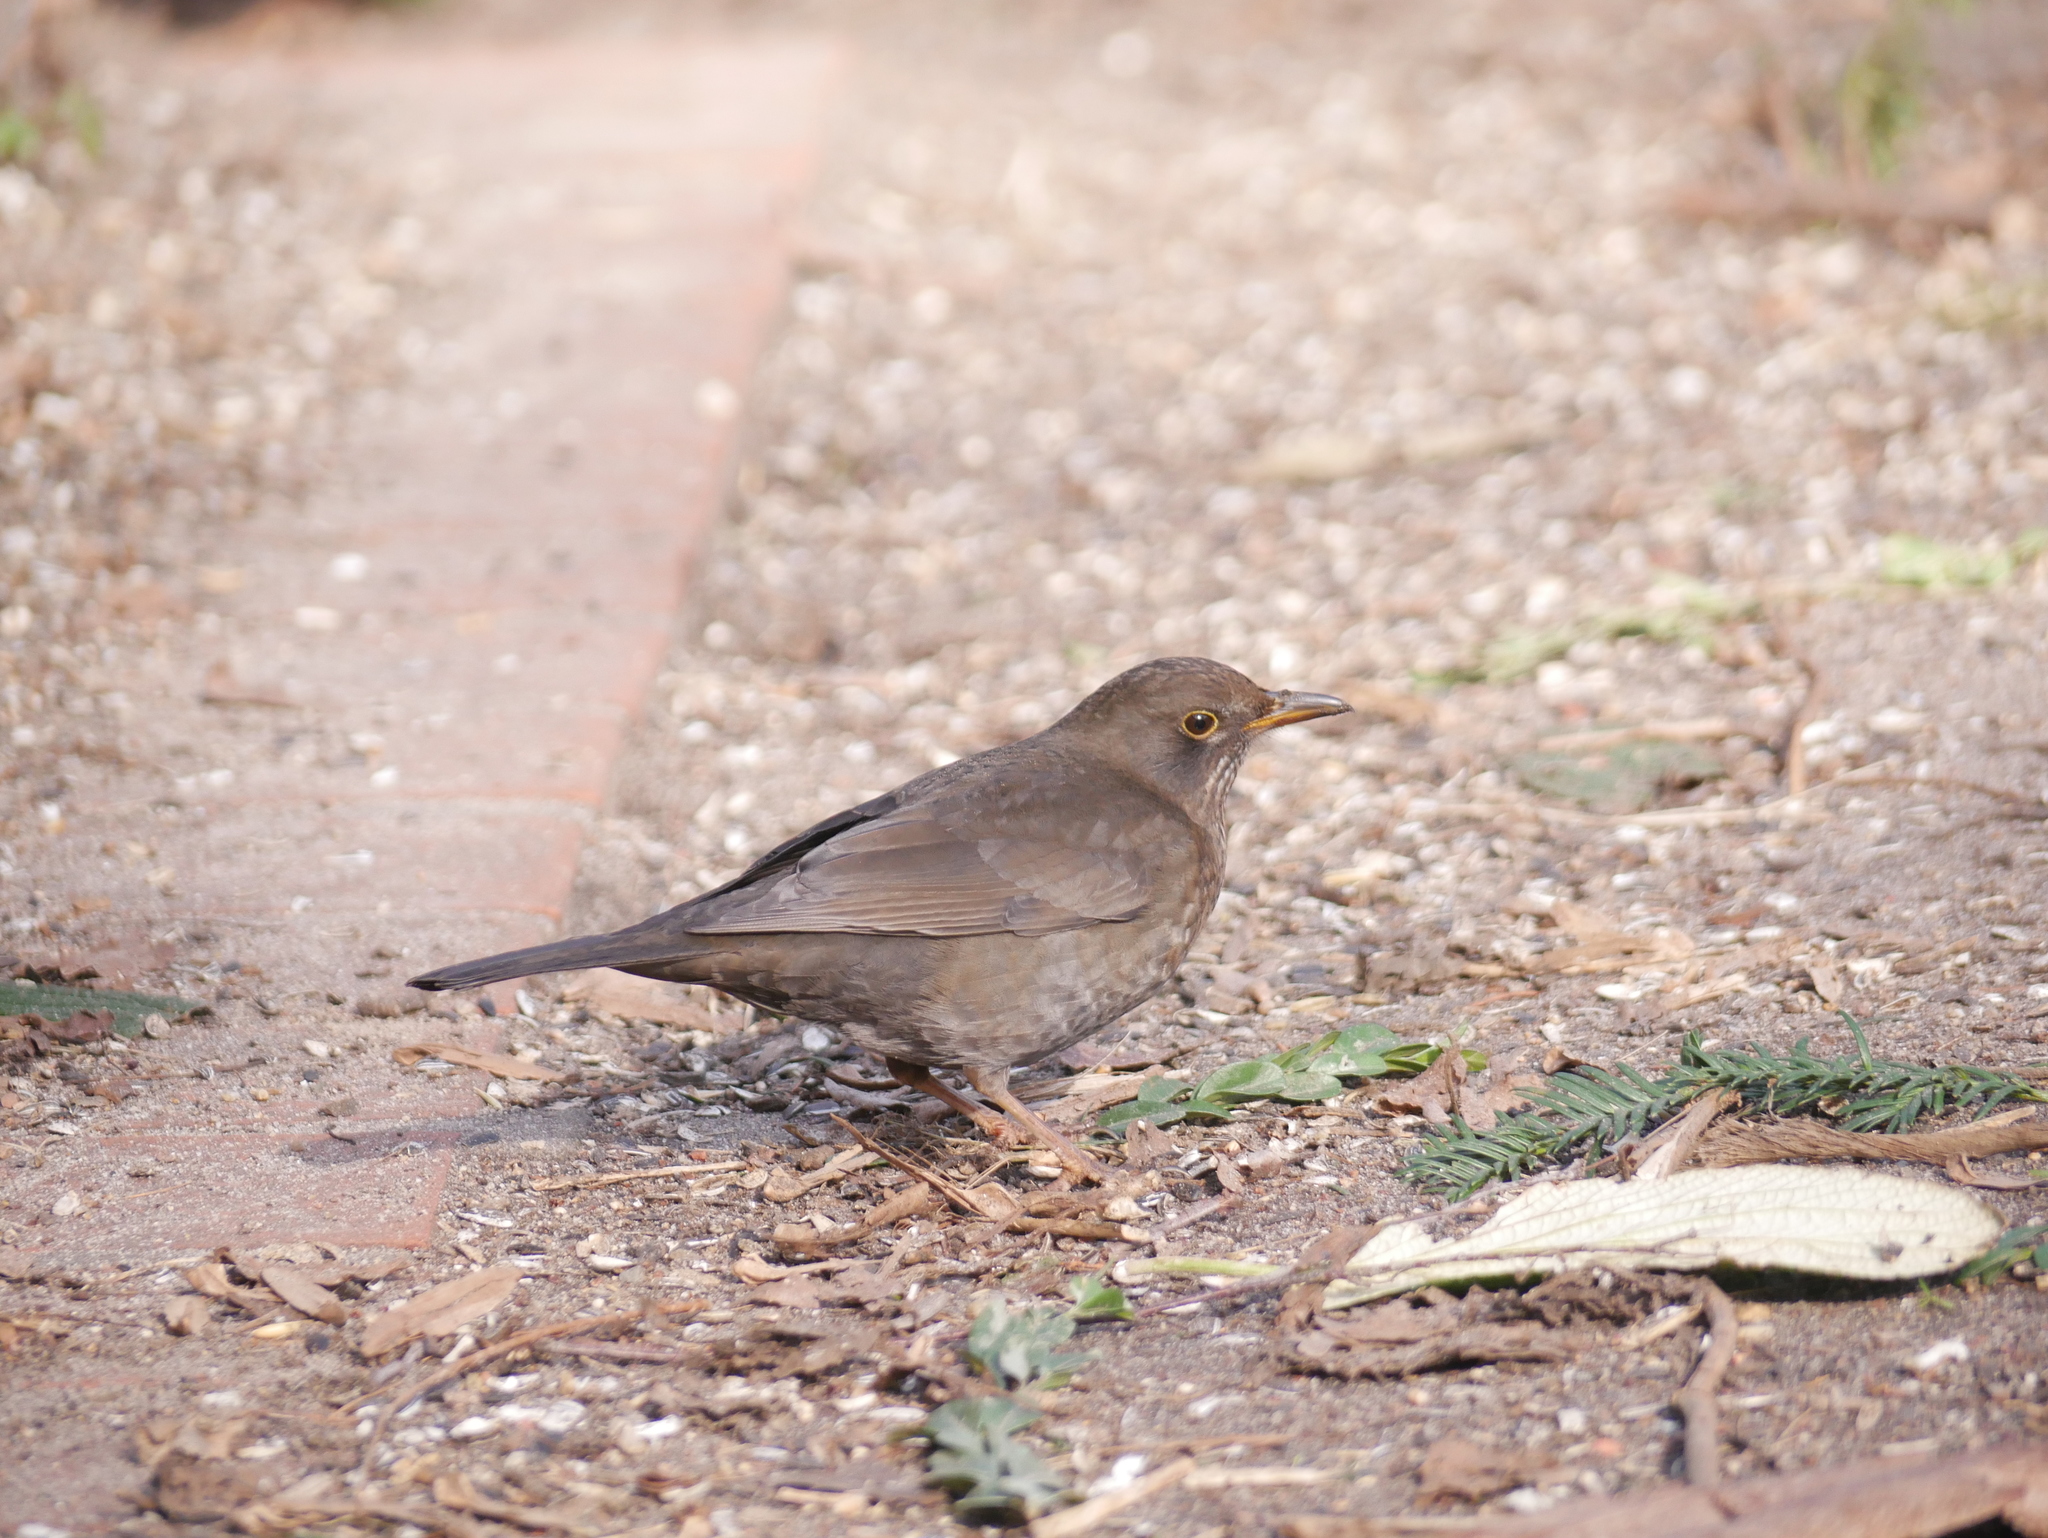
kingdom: Animalia
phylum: Chordata
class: Aves
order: Passeriformes
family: Turdidae
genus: Turdus
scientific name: Turdus merula
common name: Common blackbird
